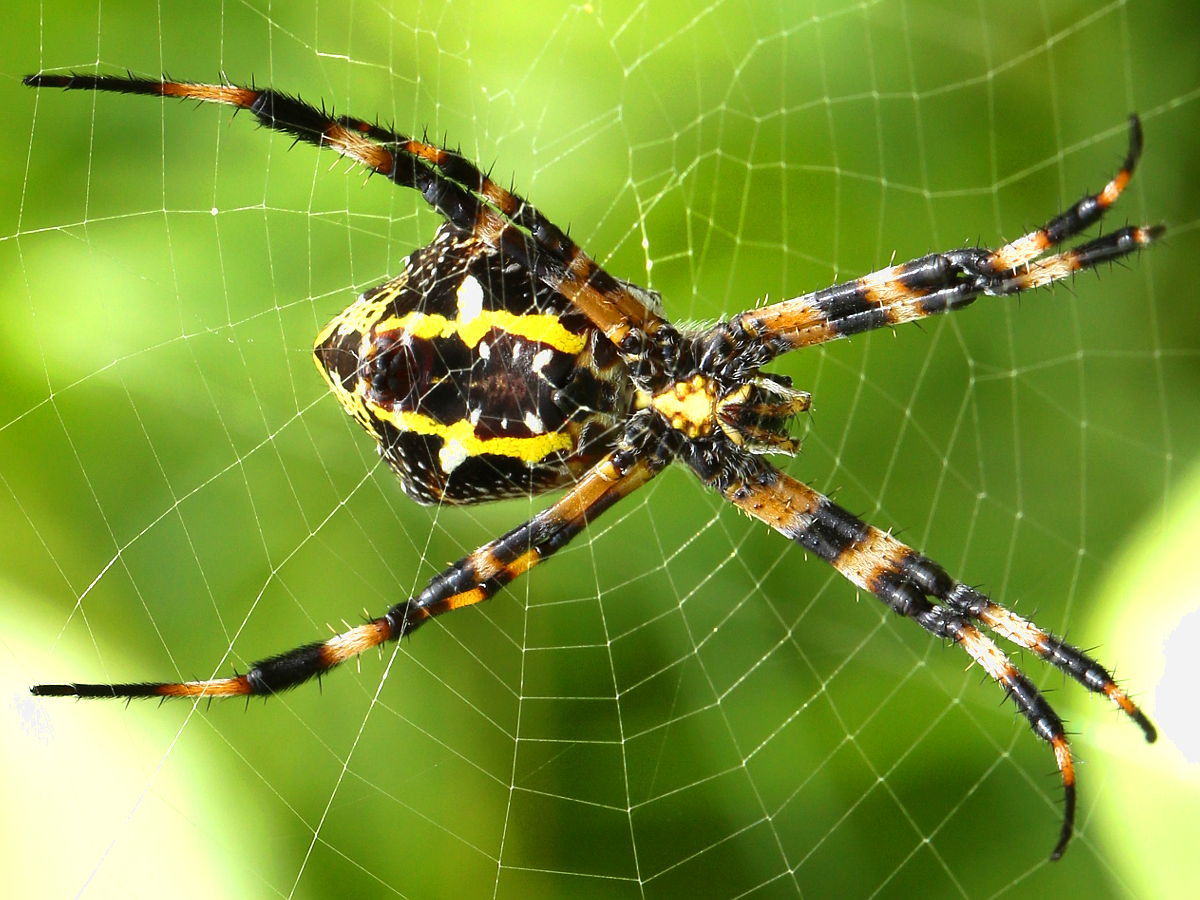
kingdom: Animalia
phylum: Arthropoda
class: Arachnida
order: Araneae
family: Araneidae
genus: Argiope
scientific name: Argiope appensa
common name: Garden spider
